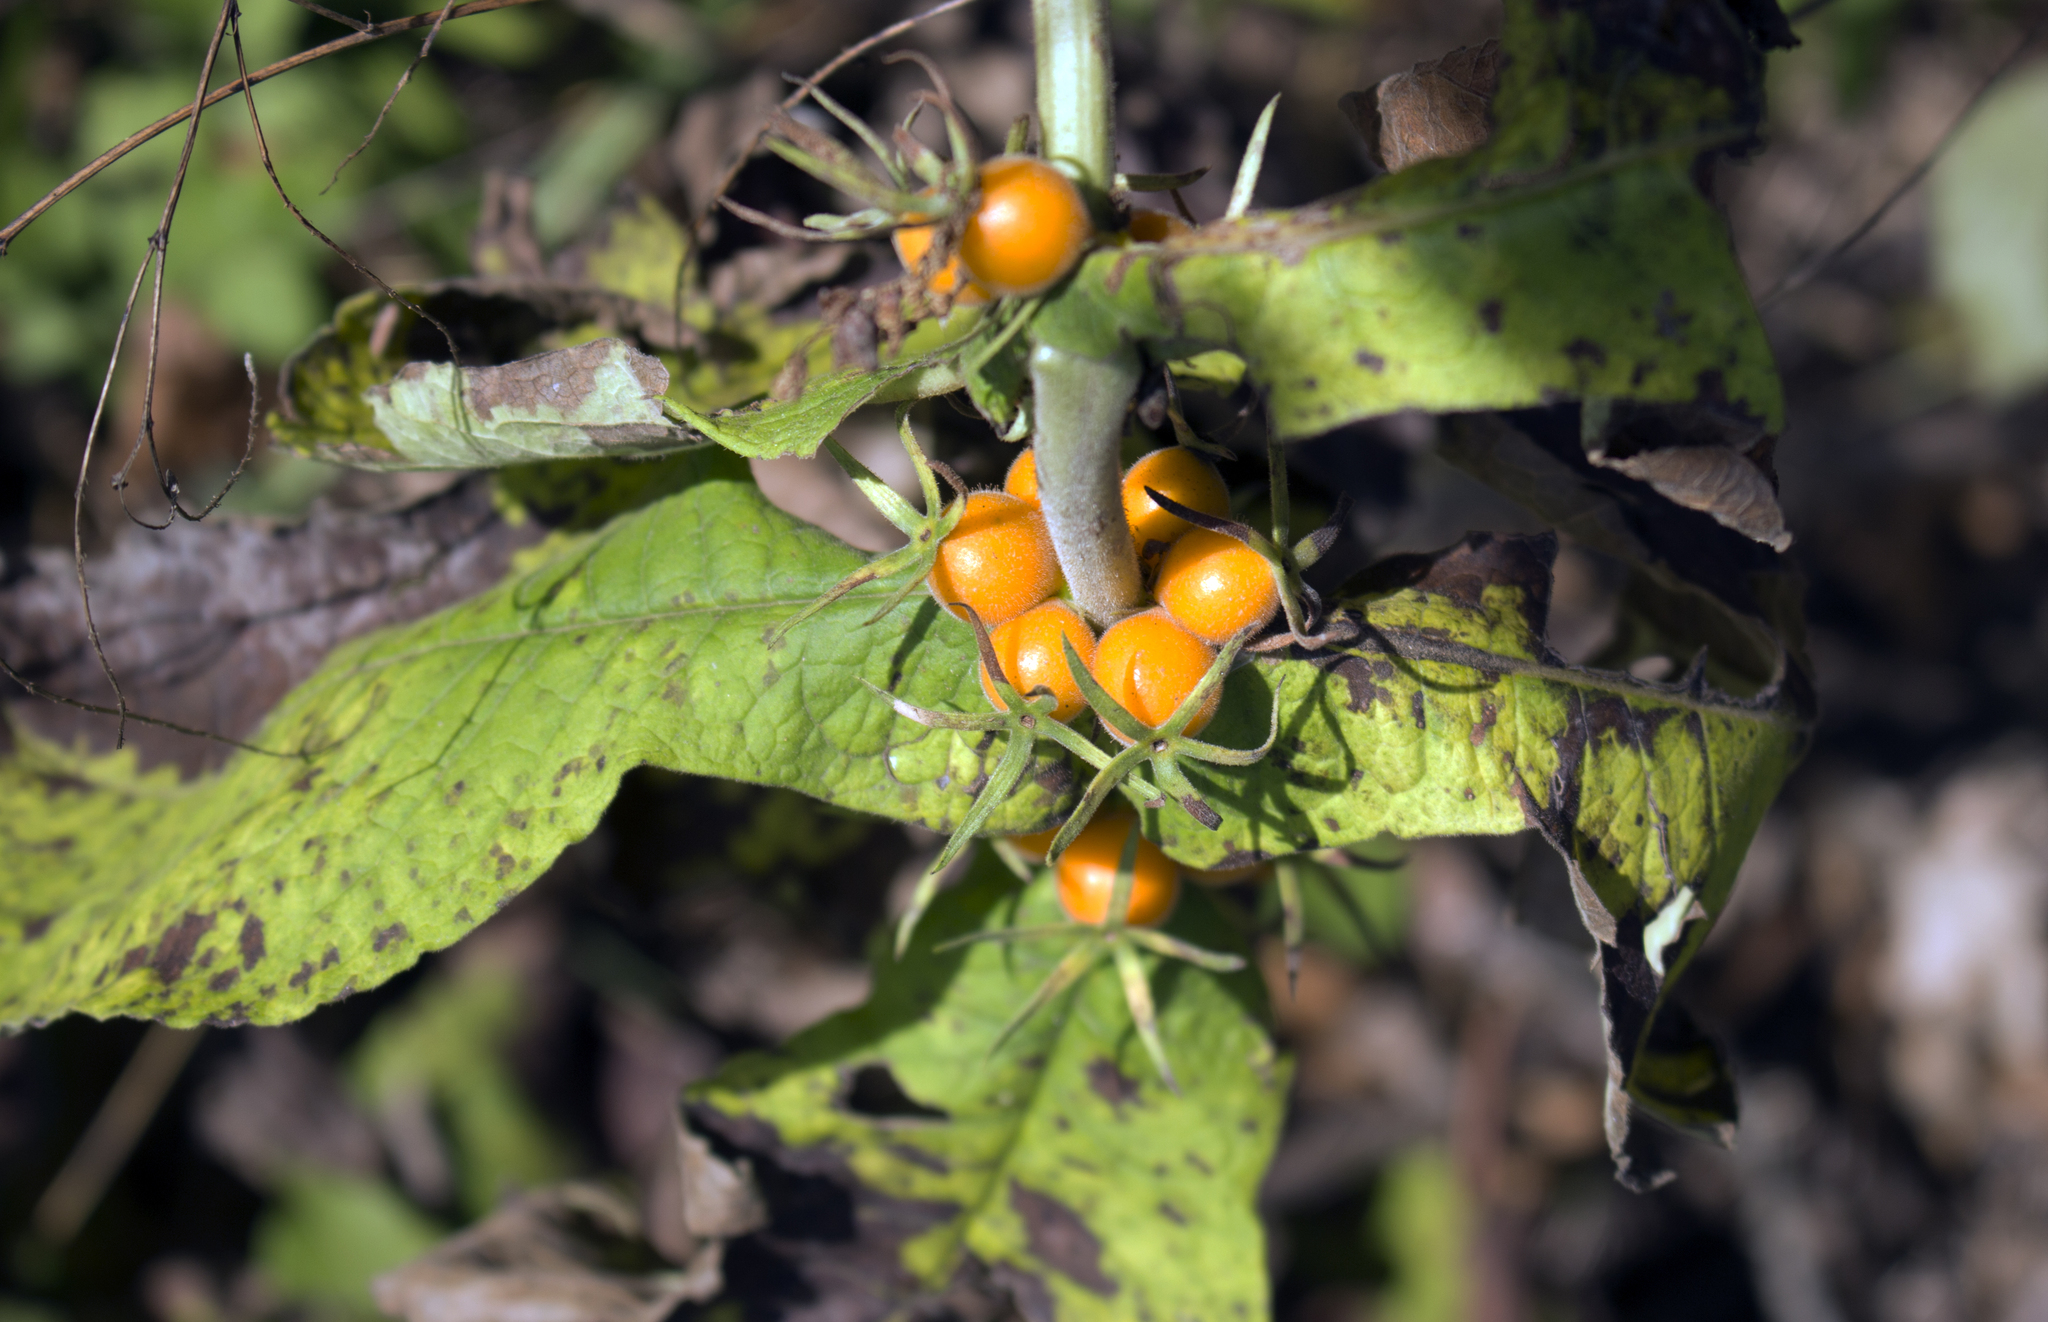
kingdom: Plantae
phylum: Tracheophyta
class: Magnoliopsida
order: Dipsacales
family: Caprifoliaceae
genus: Triosteum
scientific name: Triosteum perfoliatum
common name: Common horse-gentian
